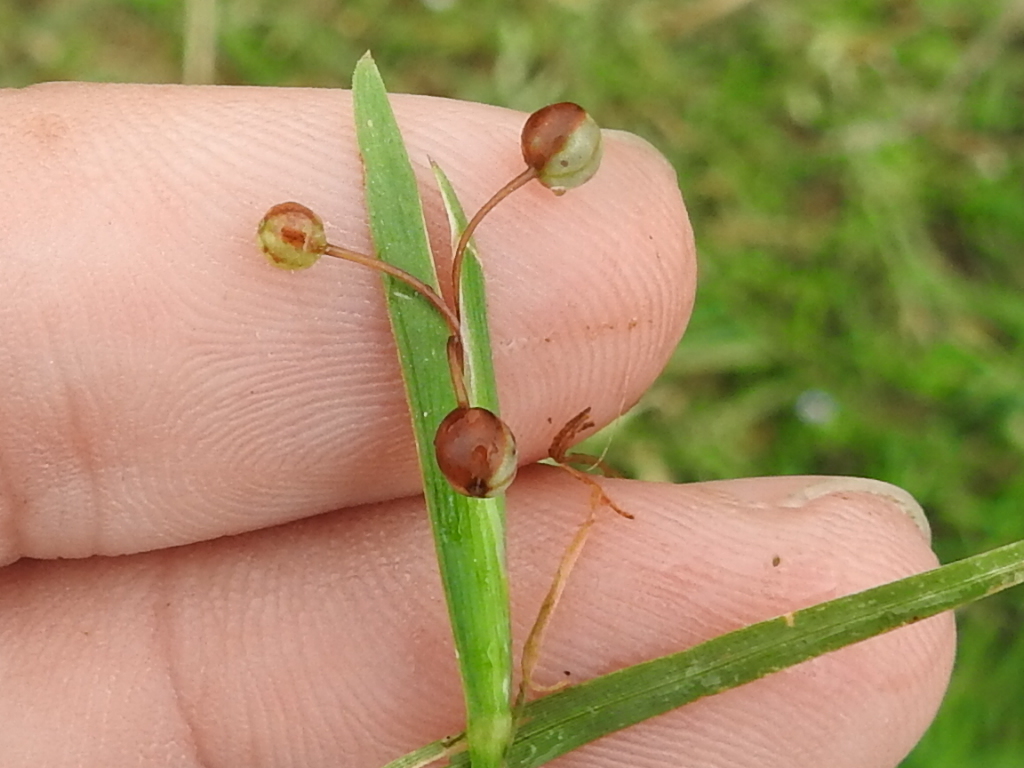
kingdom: Plantae
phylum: Tracheophyta
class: Liliopsida
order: Asparagales
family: Iridaceae
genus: Sisyrinchium
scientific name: Sisyrinchium micranthum
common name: Bermuda pigroot
